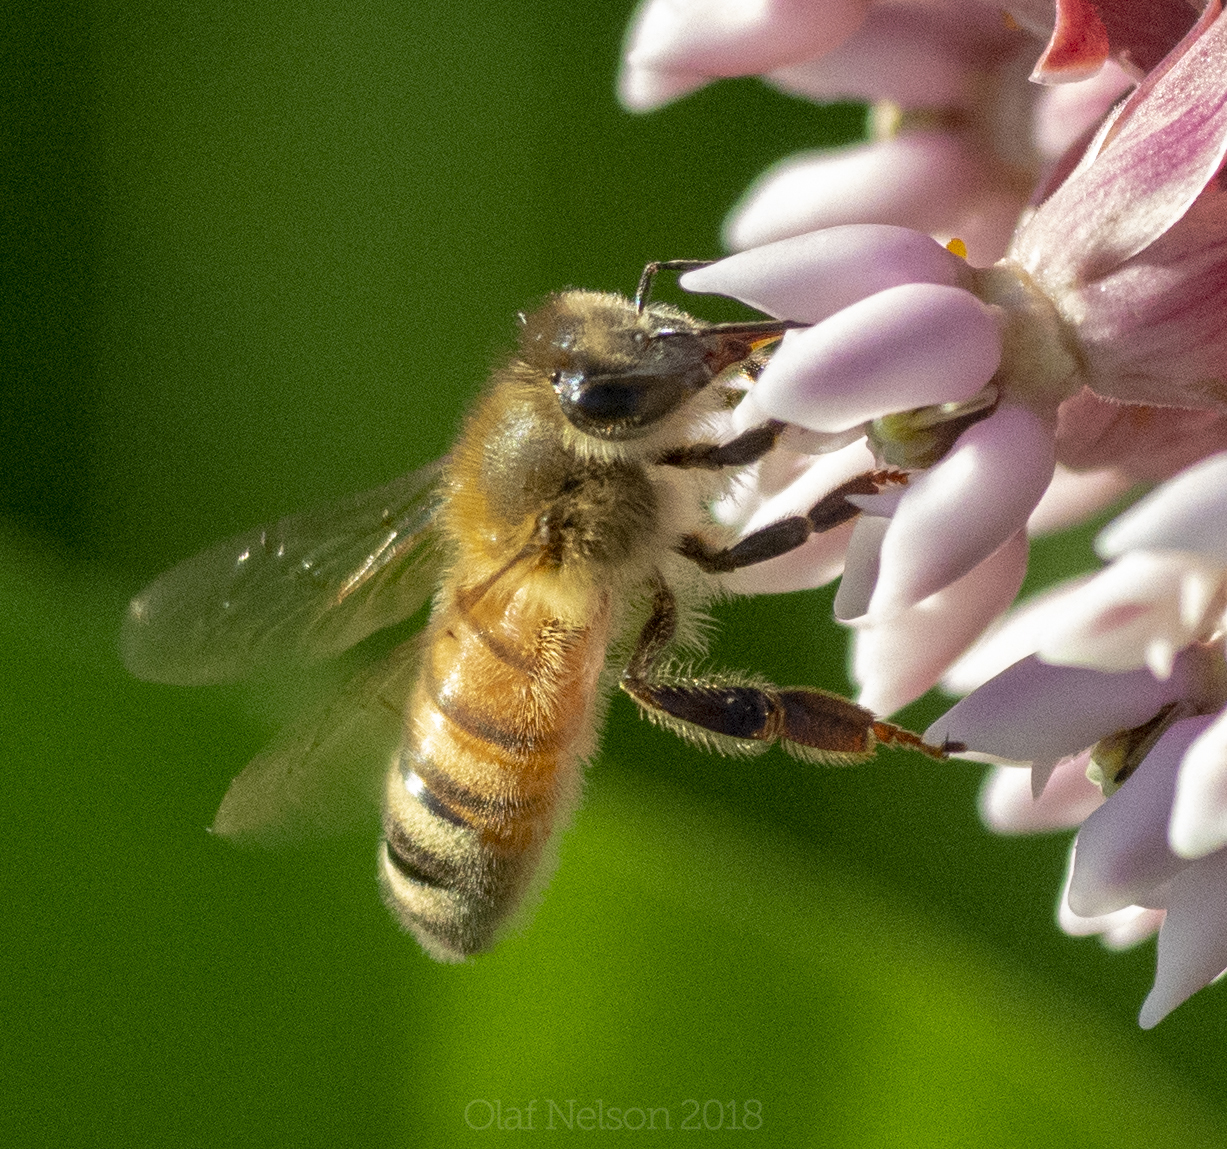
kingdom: Animalia
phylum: Arthropoda
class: Insecta
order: Hymenoptera
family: Apidae
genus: Apis
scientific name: Apis mellifera
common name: Honey bee
